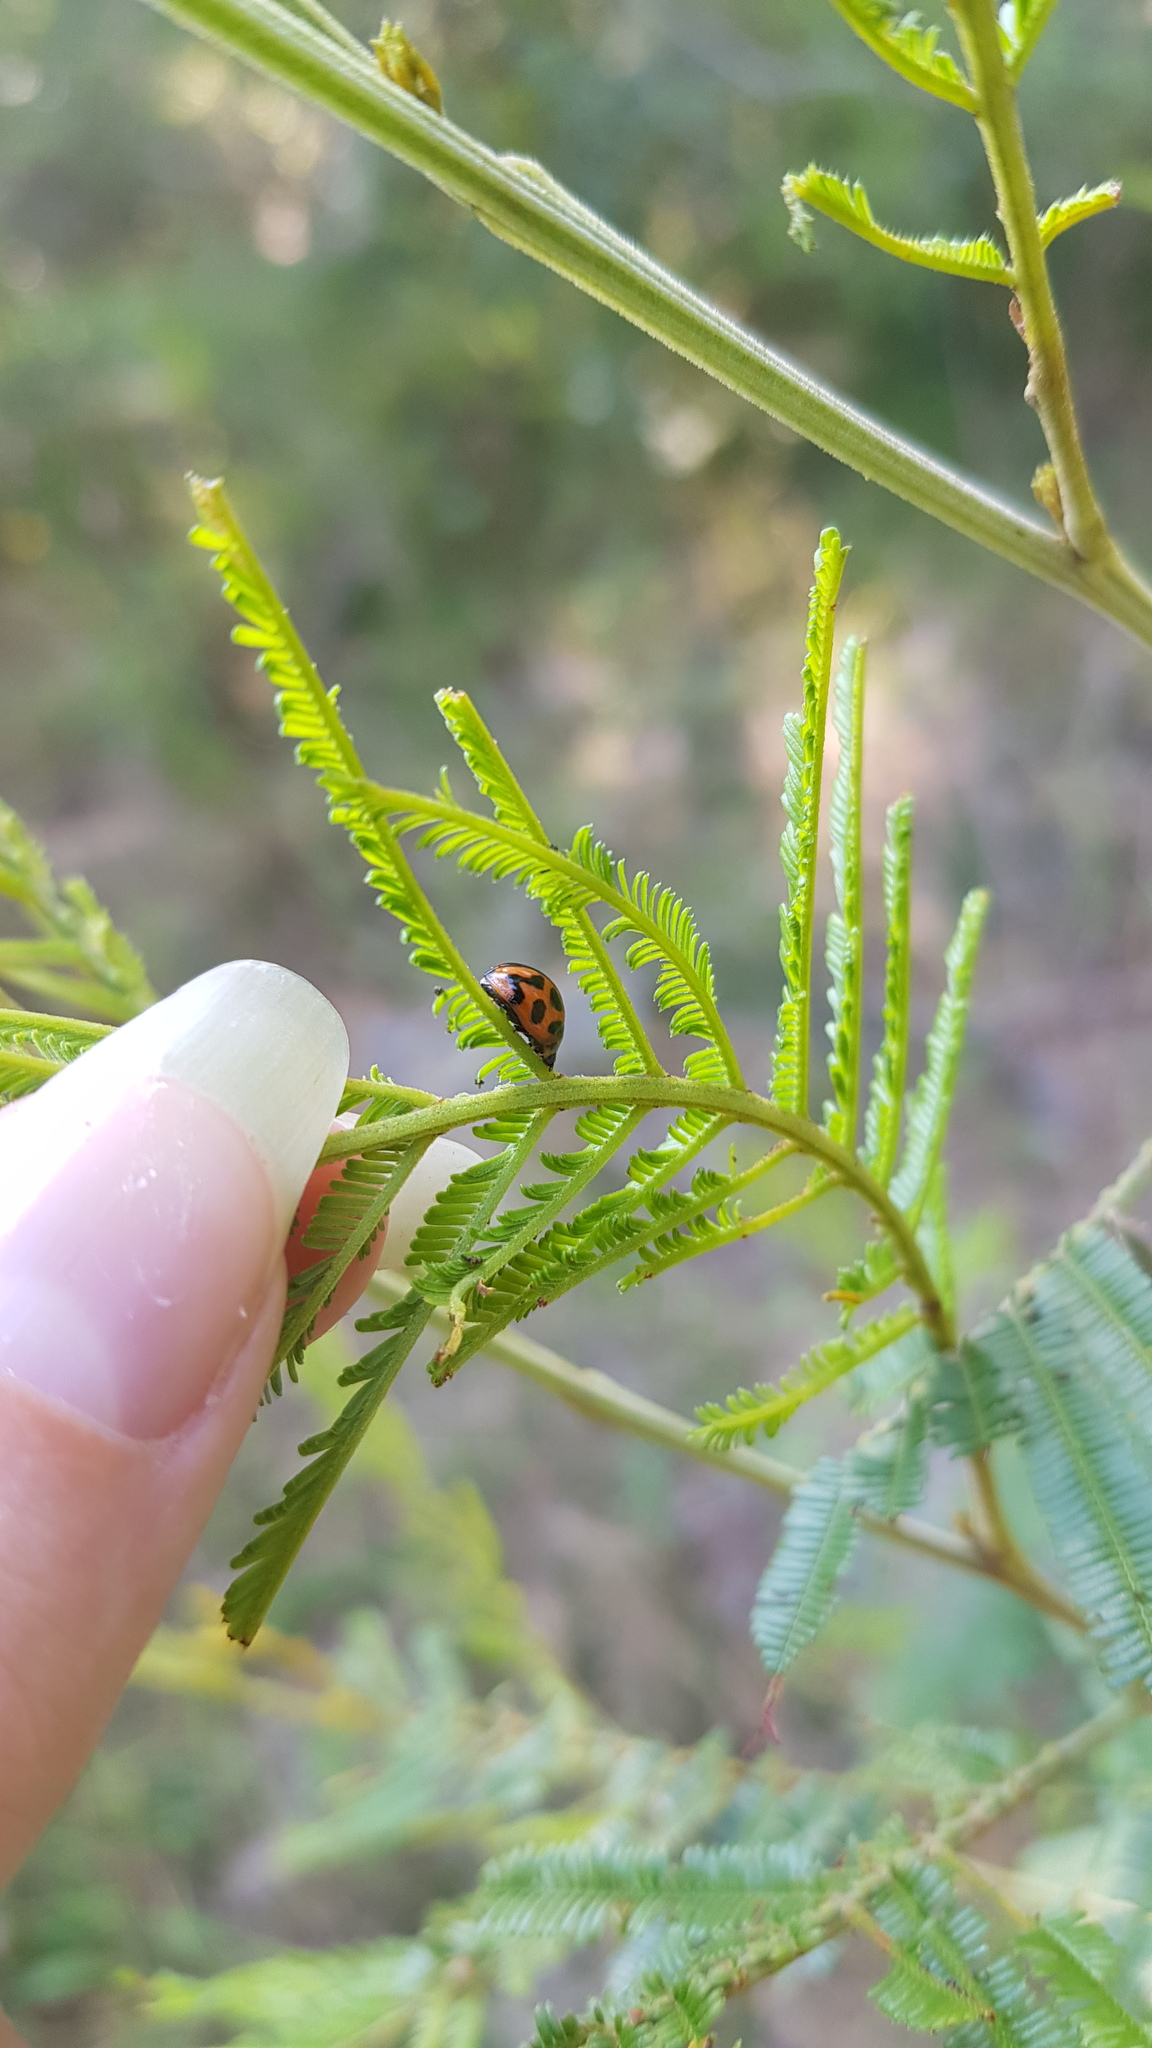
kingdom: Animalia
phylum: Arthropoda
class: Insecta
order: Coleoptera
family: Chrysomelidae
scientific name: Chrysomelidae
